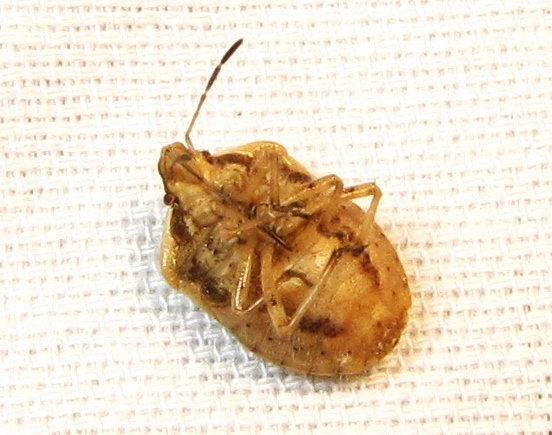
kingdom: Animalia
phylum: Arthropoda
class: Insecta
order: Hemiptera
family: Pentatomidae
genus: Trichopepla
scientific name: Trichopepla semivittata
